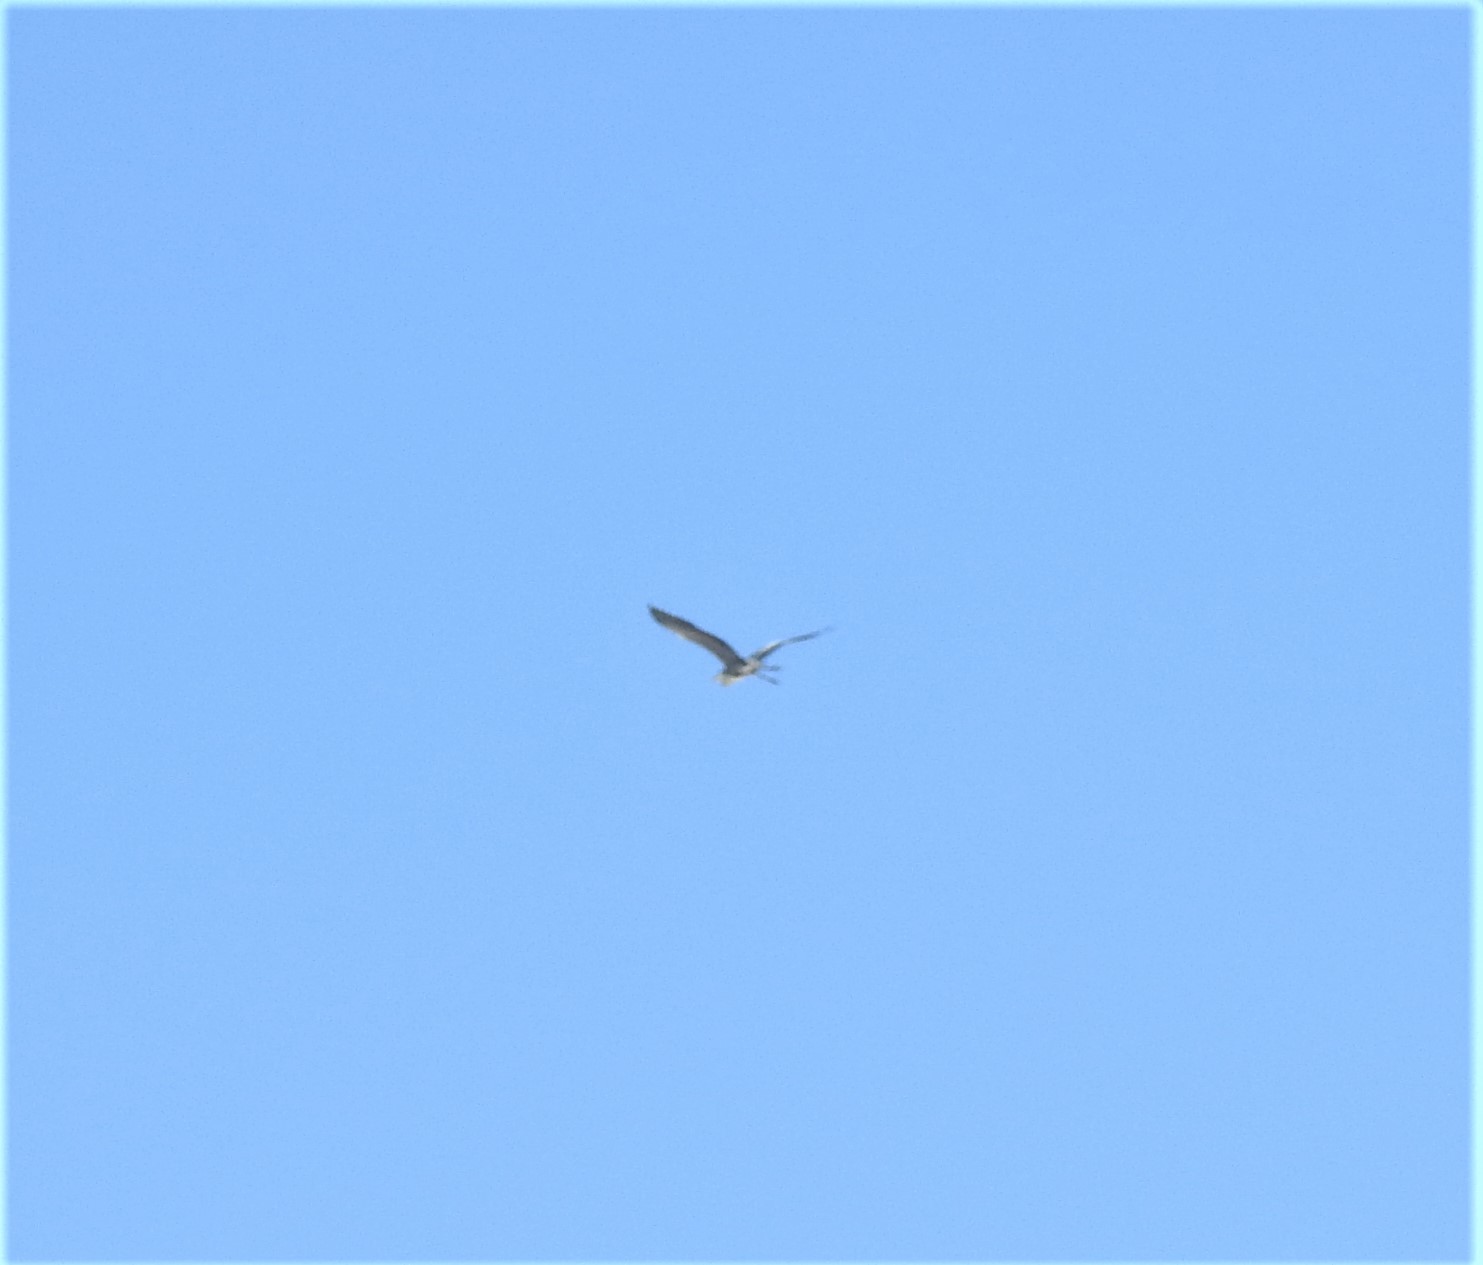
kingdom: Animalia
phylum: Chordata
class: Aves
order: Pelecaniformes
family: Ardeidae
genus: Ardea
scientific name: Ardea cinerea
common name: Grey heron
